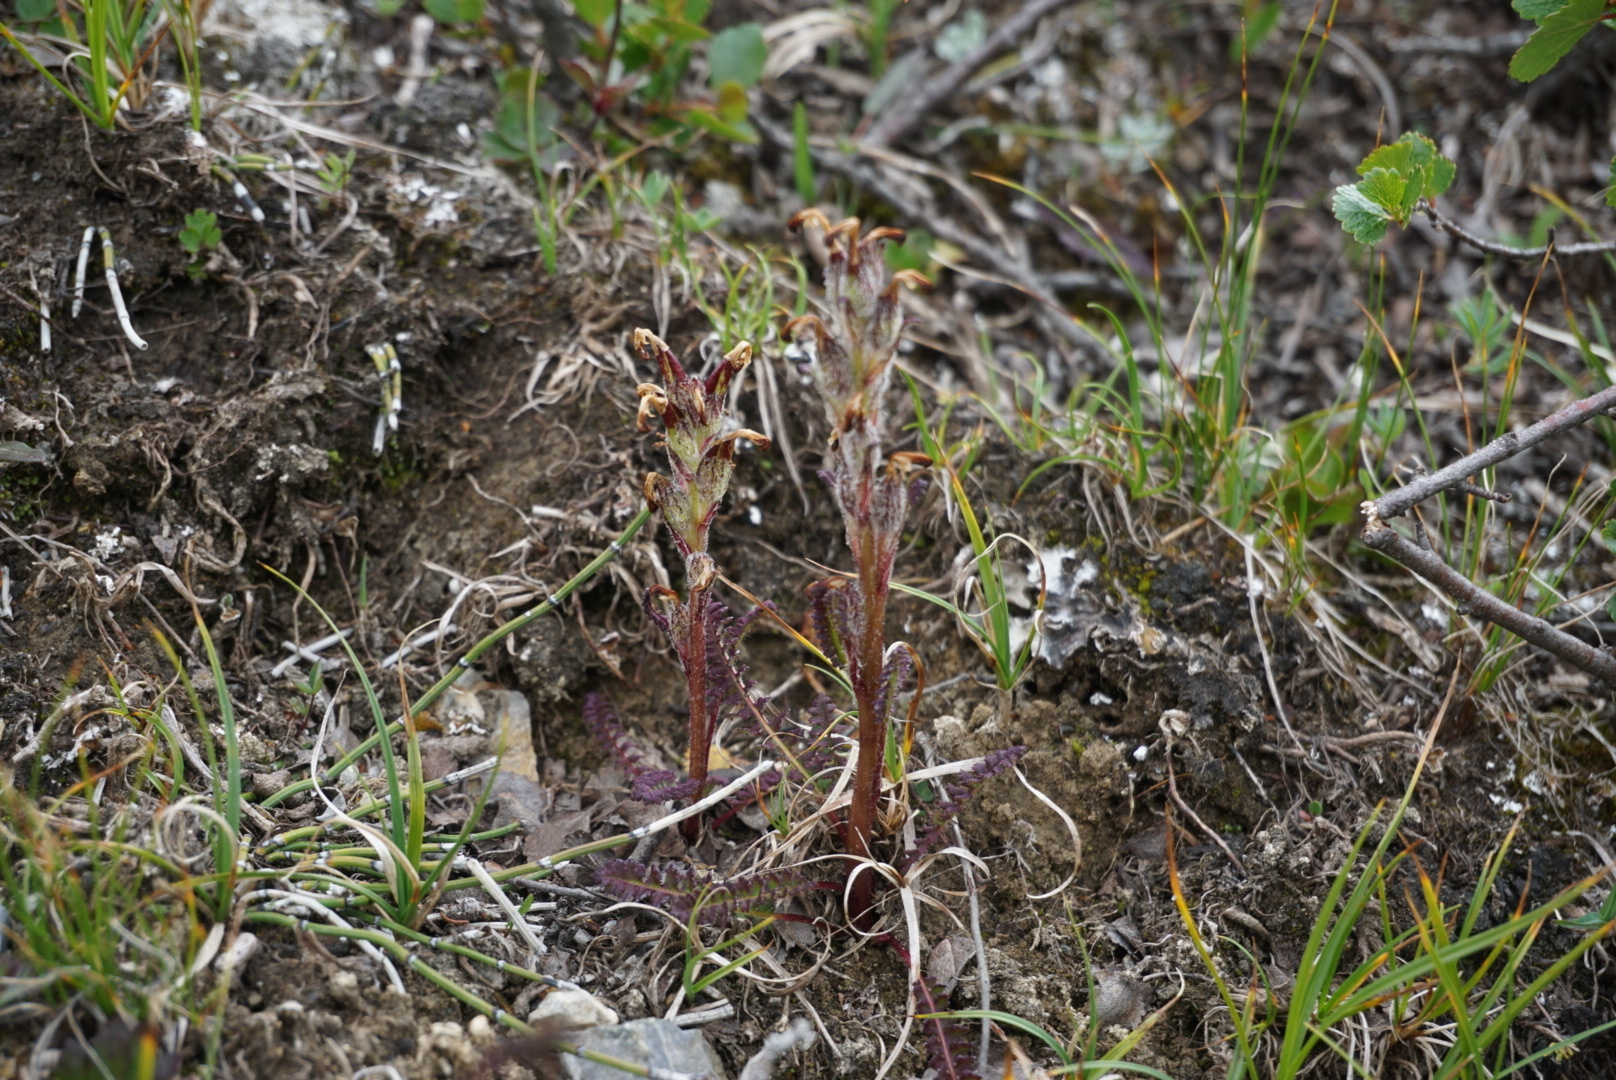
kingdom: Plantae
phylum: Tracheophyta
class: Magnoliopsida
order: Lamiales
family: Orobanchaceae
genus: Pedicularis
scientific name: Pedicularis flammea
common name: Flame-coloured lousewort
